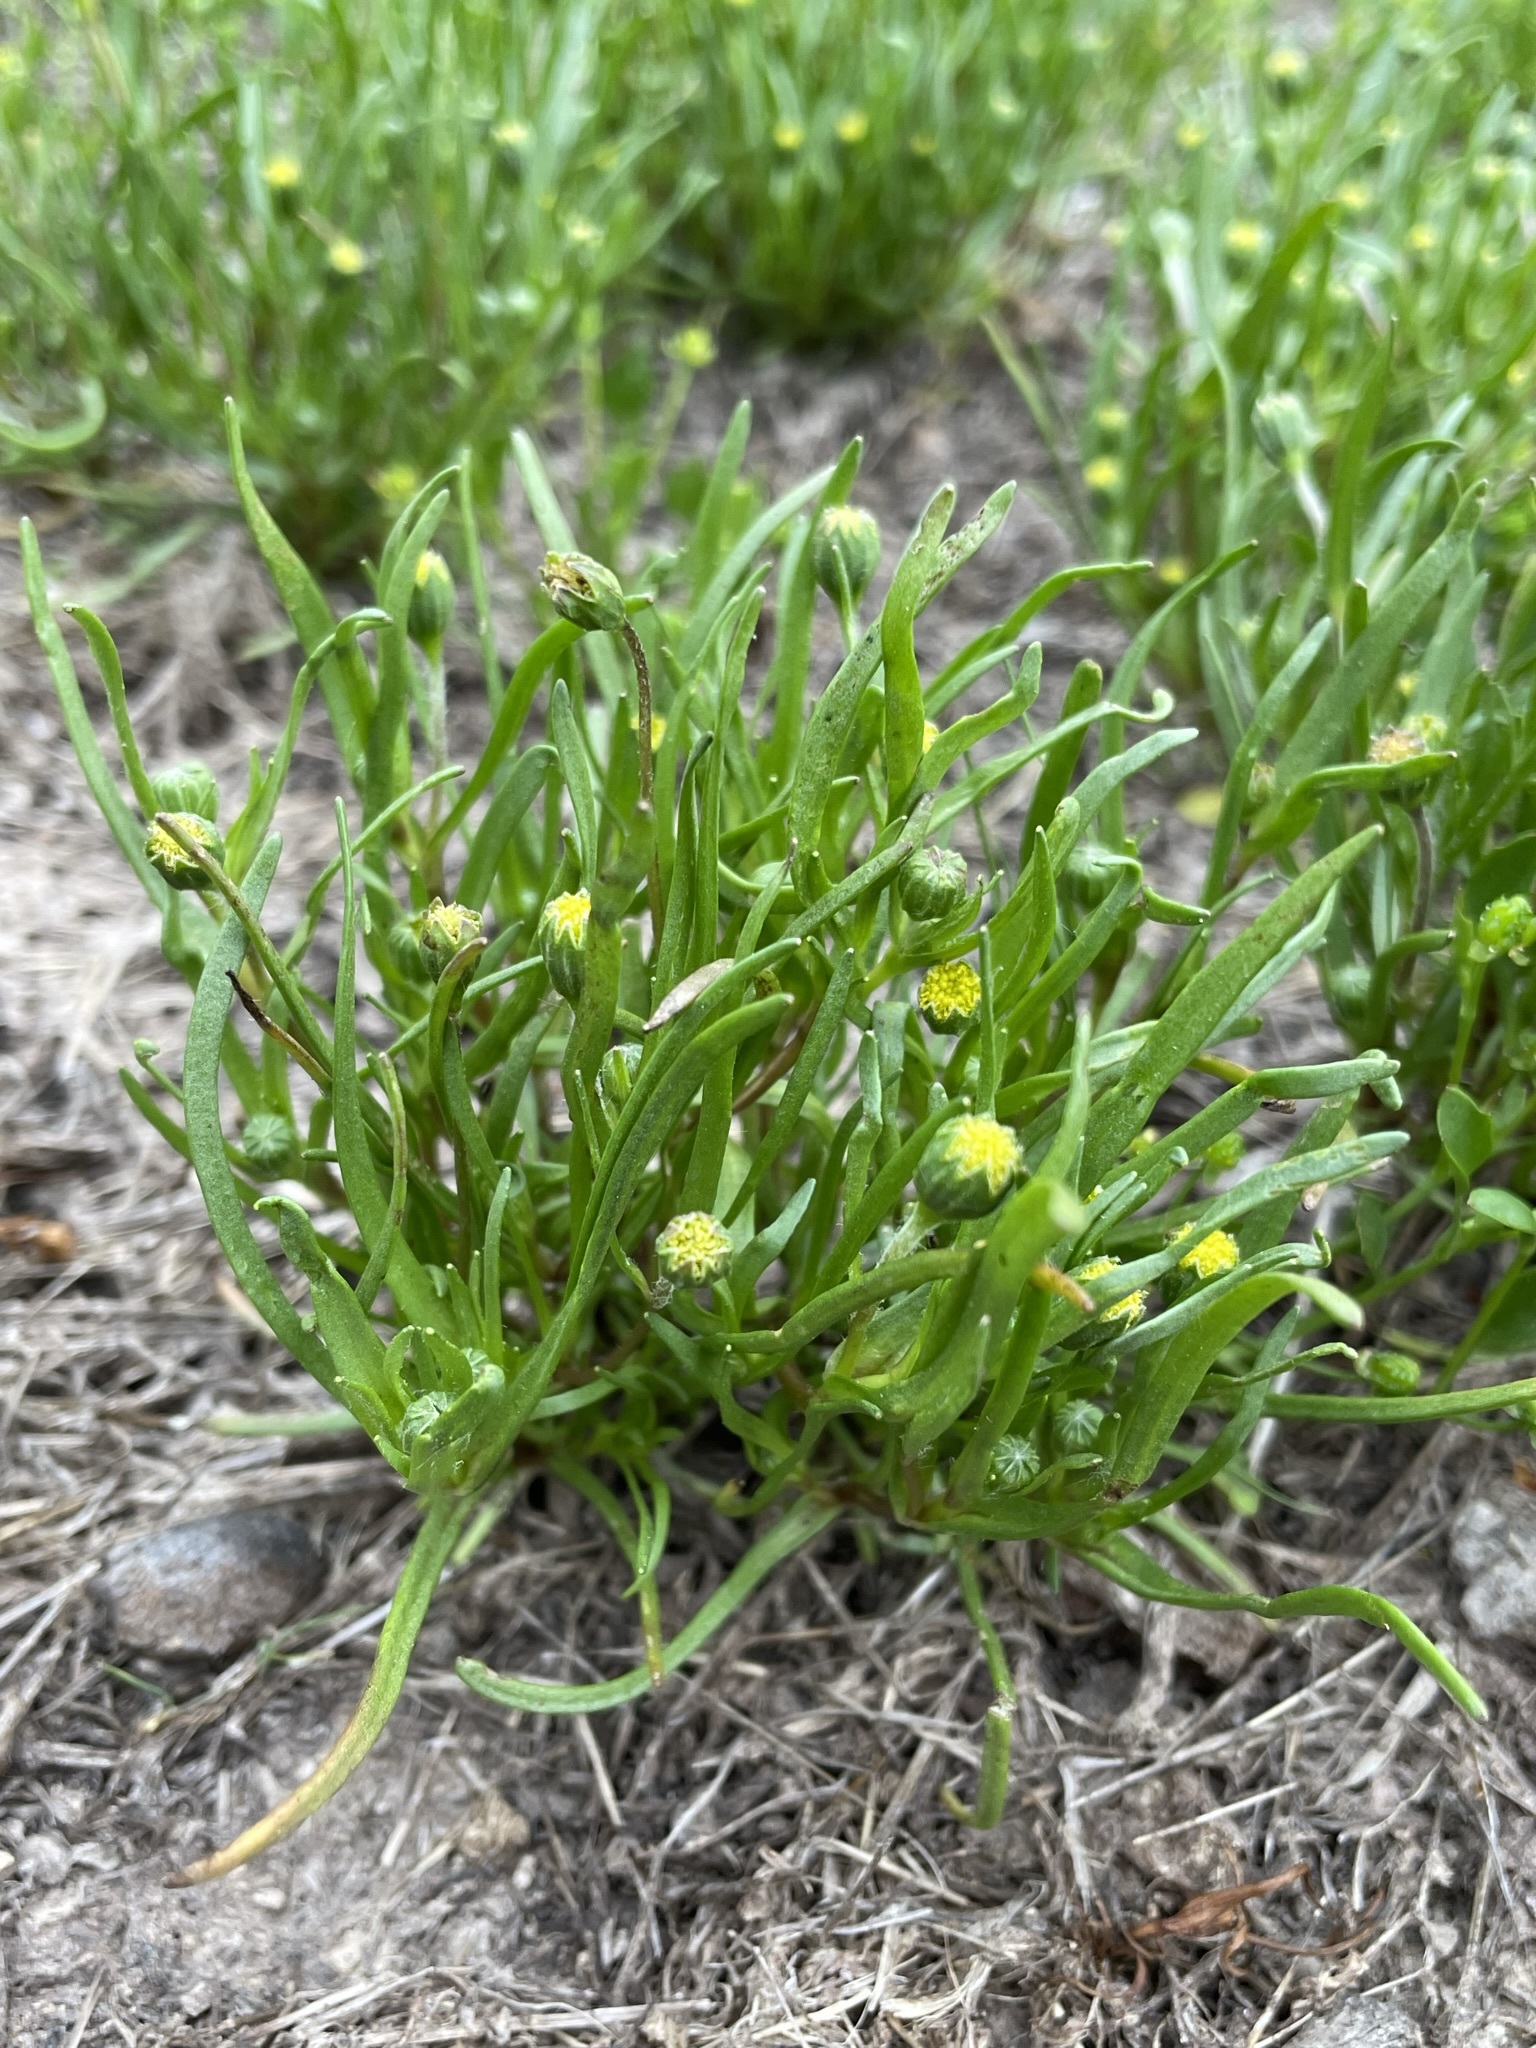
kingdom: Plantae
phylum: Tracheophyta
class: Magnoliopsida
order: Asterales
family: Asteraceae
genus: Lasthenia
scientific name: Lasthenia glaberrima
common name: Smooth goldfields
